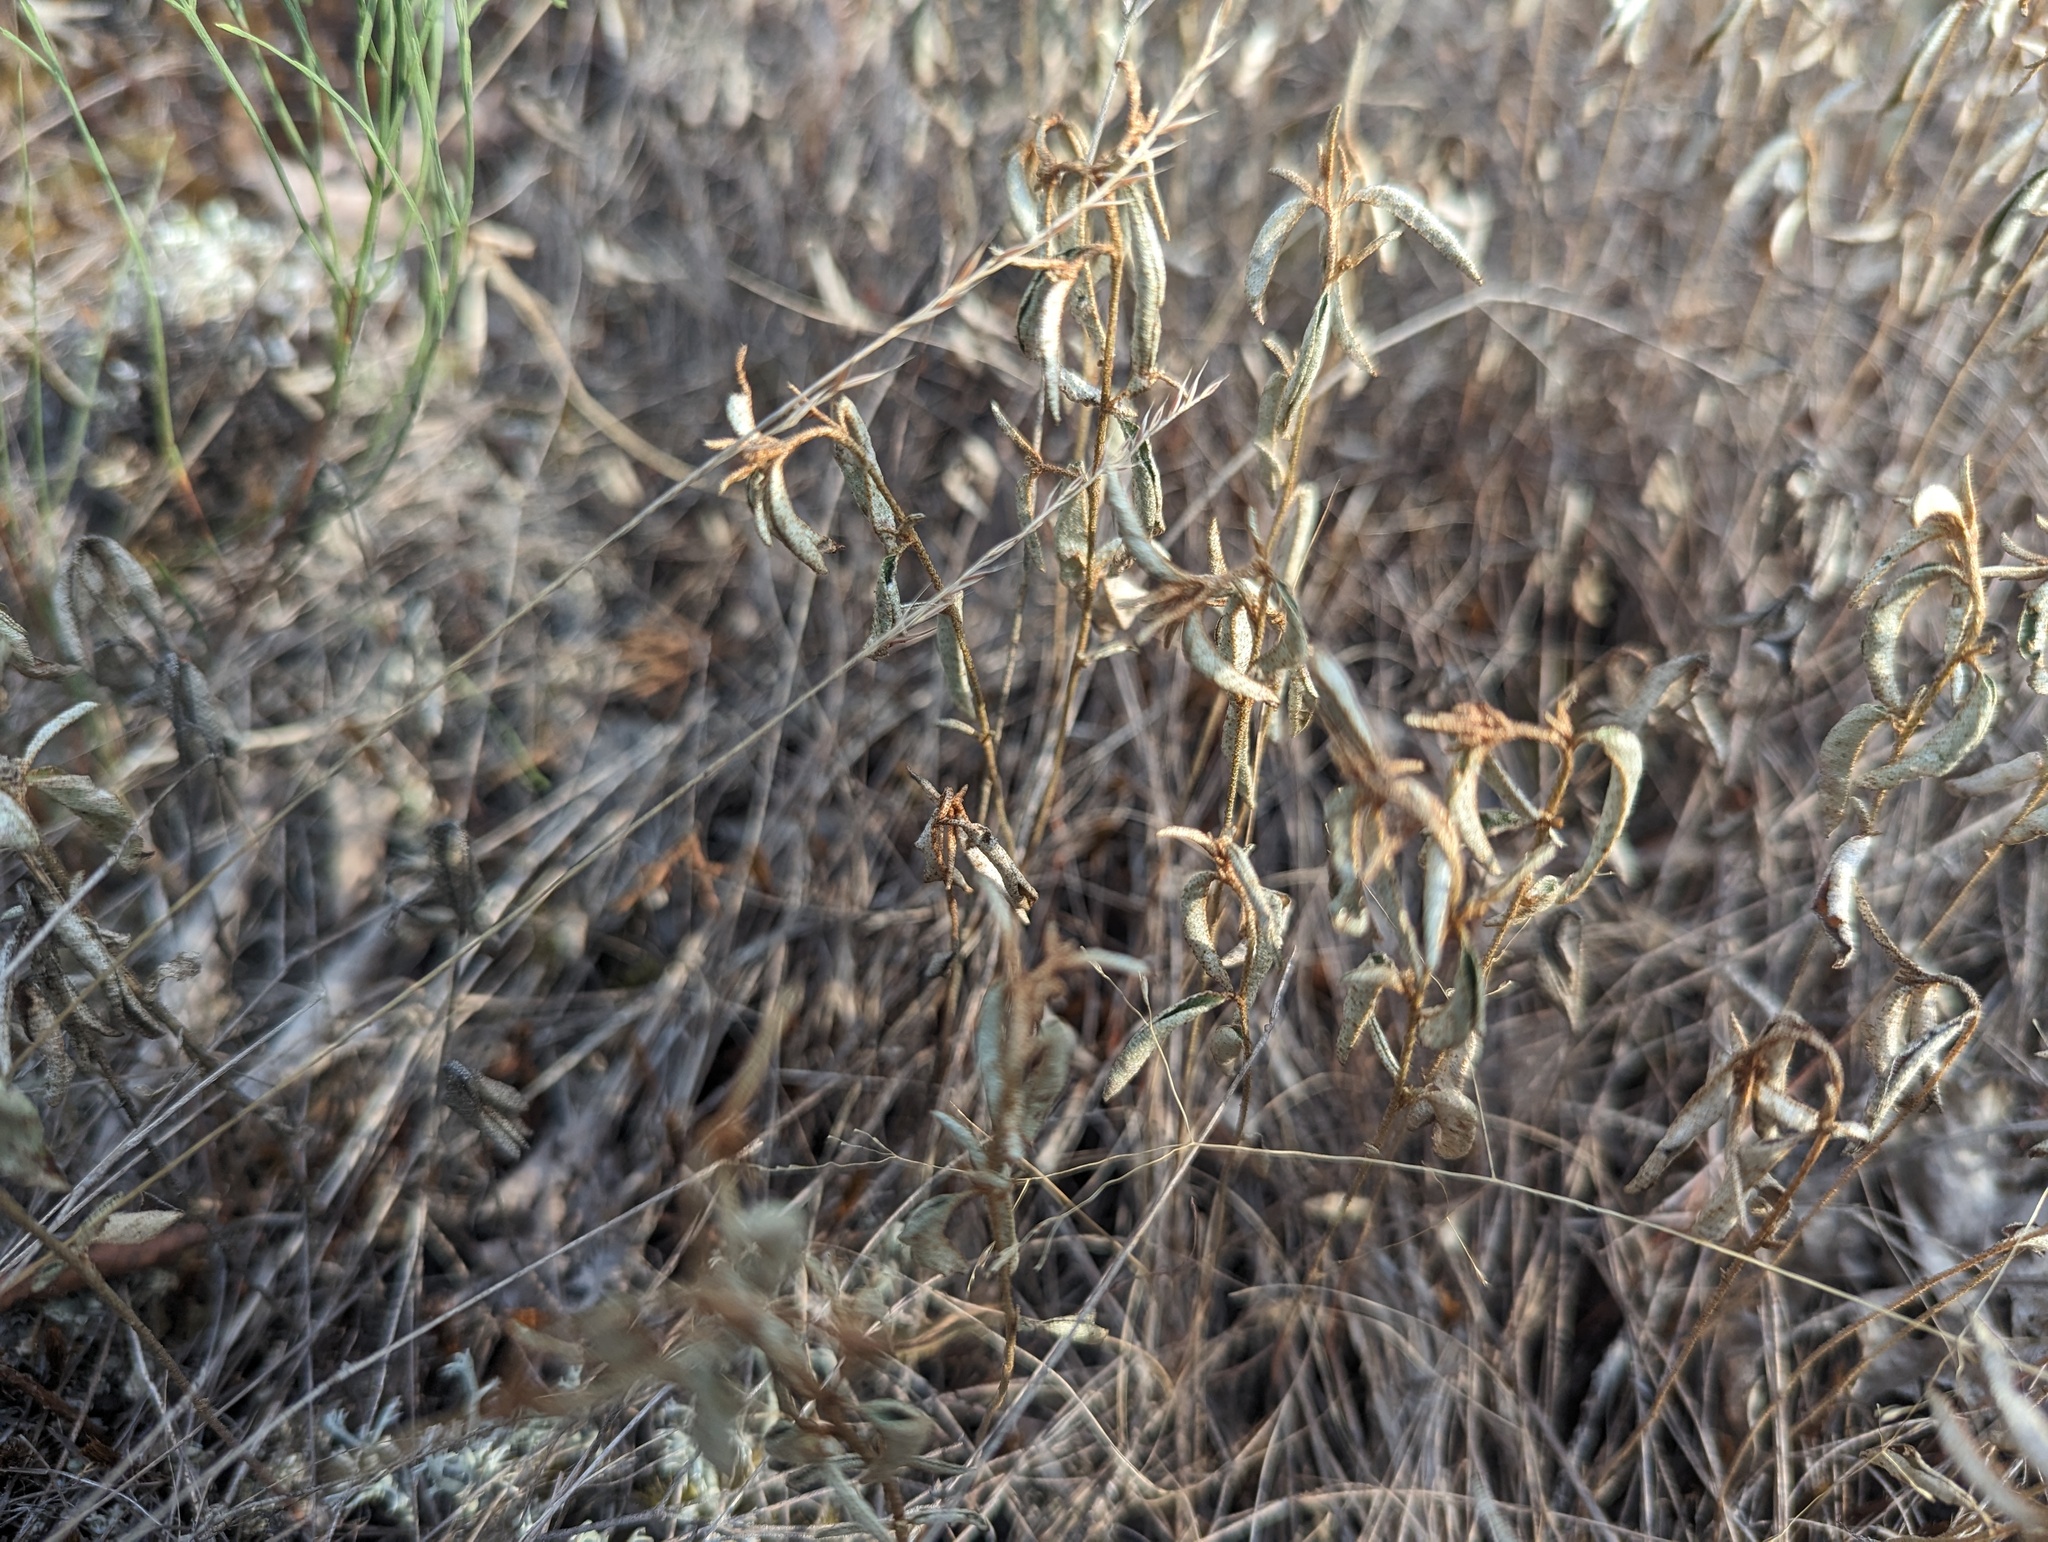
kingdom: Plantae
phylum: Tracheophyta
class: Magnoliopsida
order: Malpighiales
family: Euphorbiaceae
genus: Croton
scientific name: Croton michauxii
